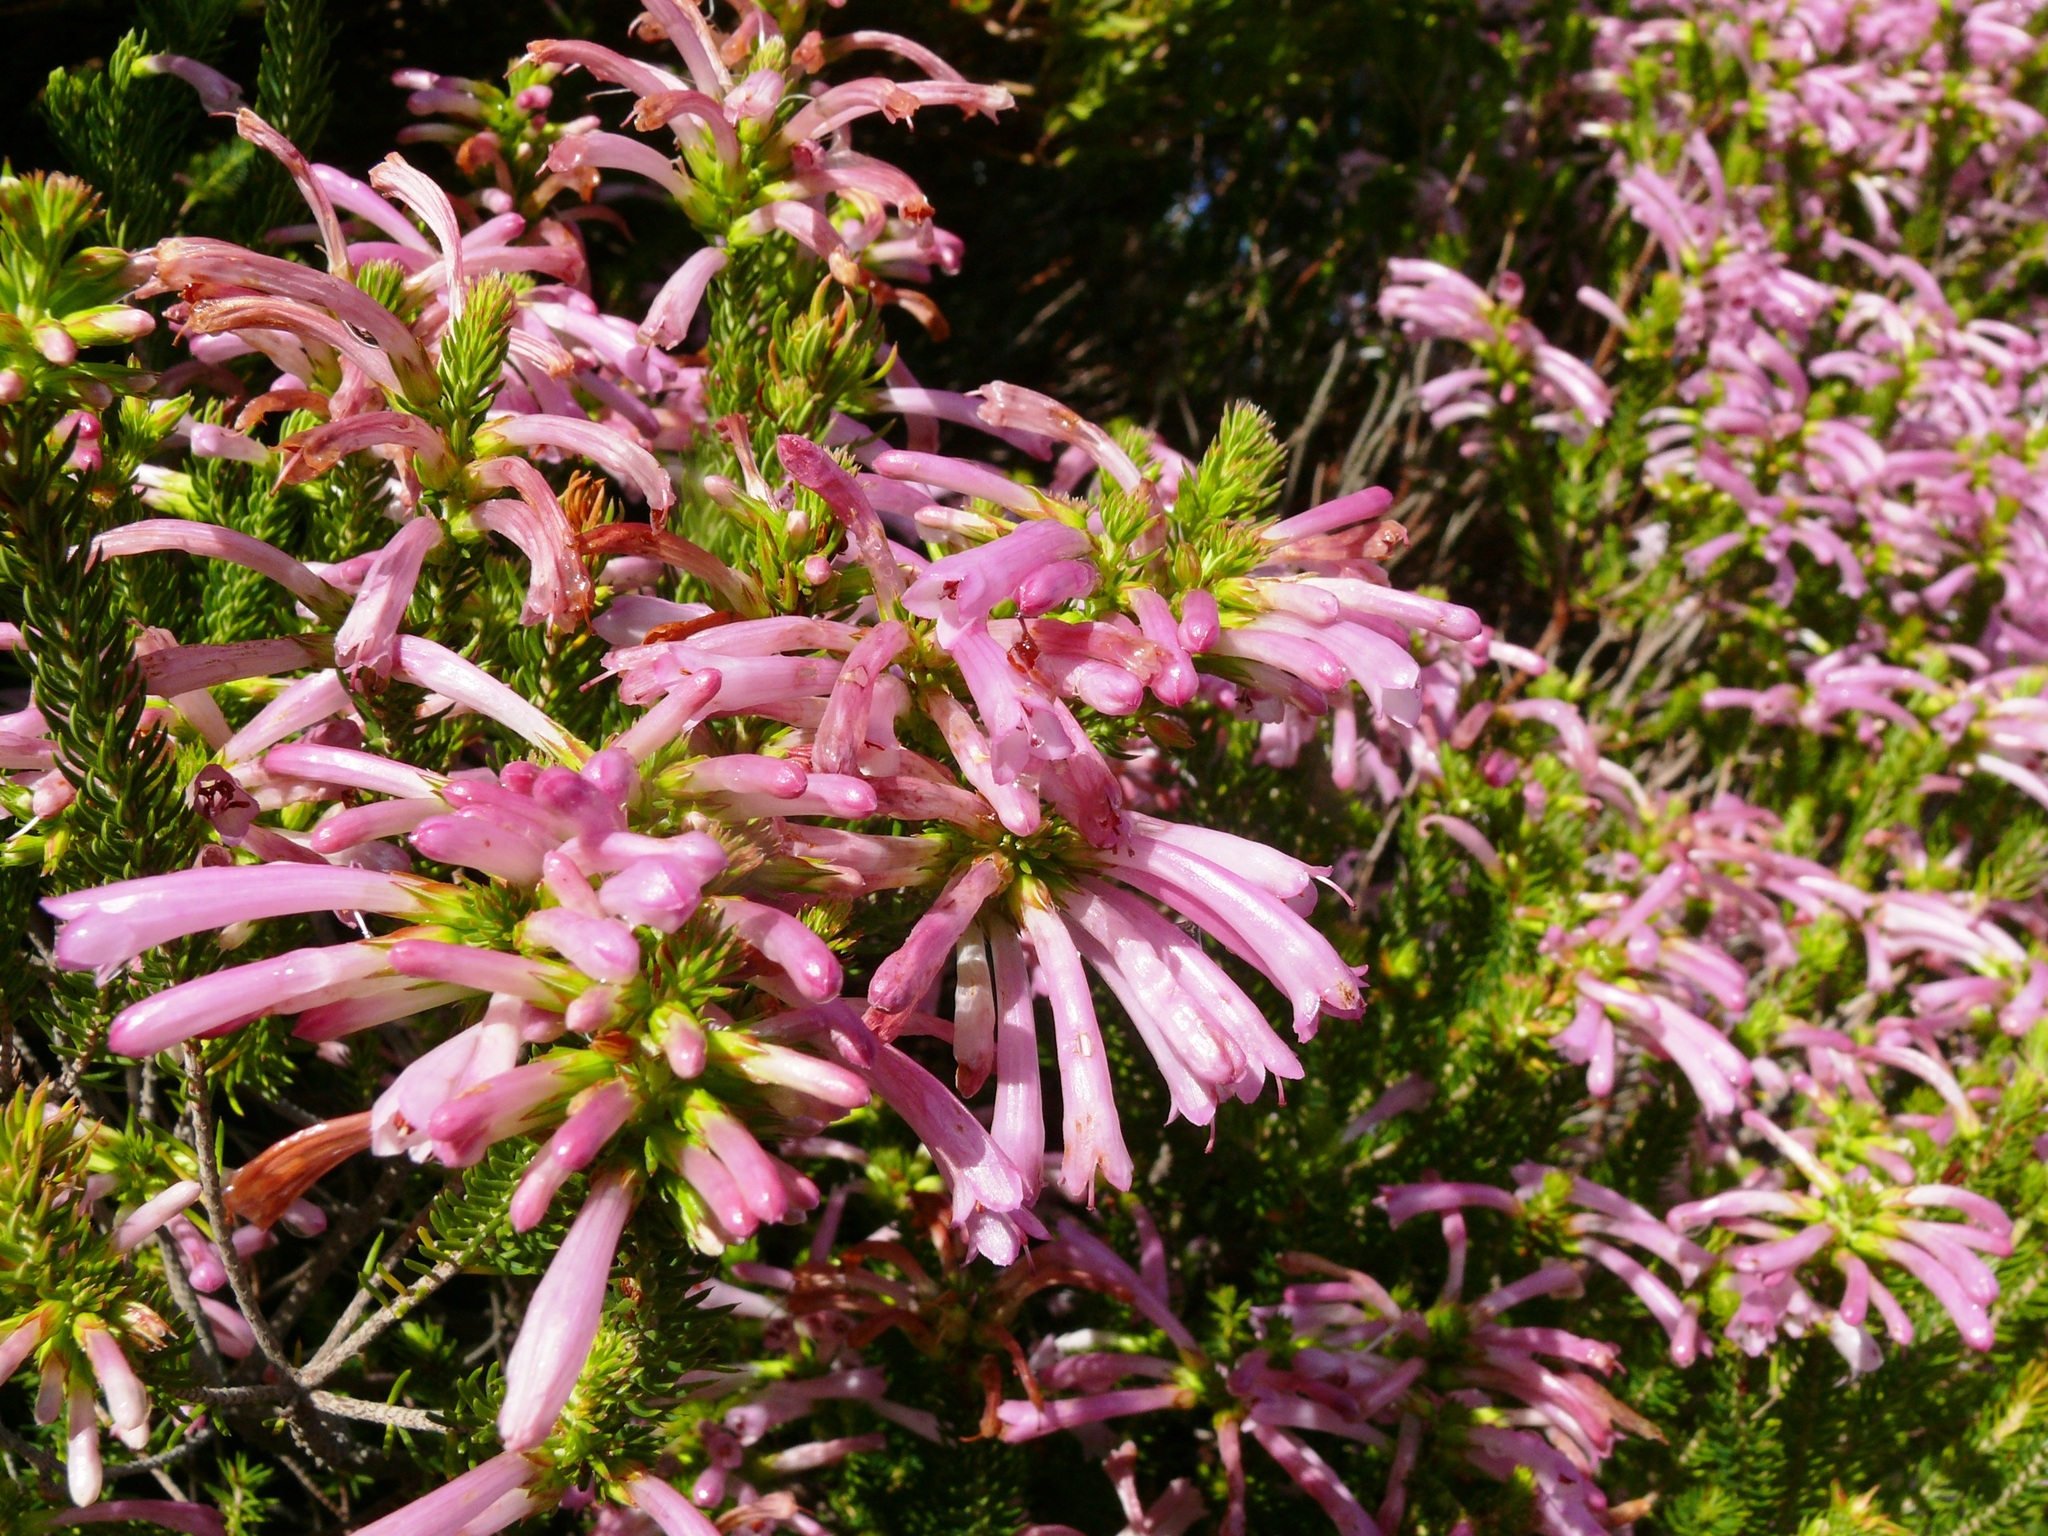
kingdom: Plantae
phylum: Tracheophyta
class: Magnoliopsida
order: Ericales
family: Ericaceae
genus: Erica
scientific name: Erica abietina
